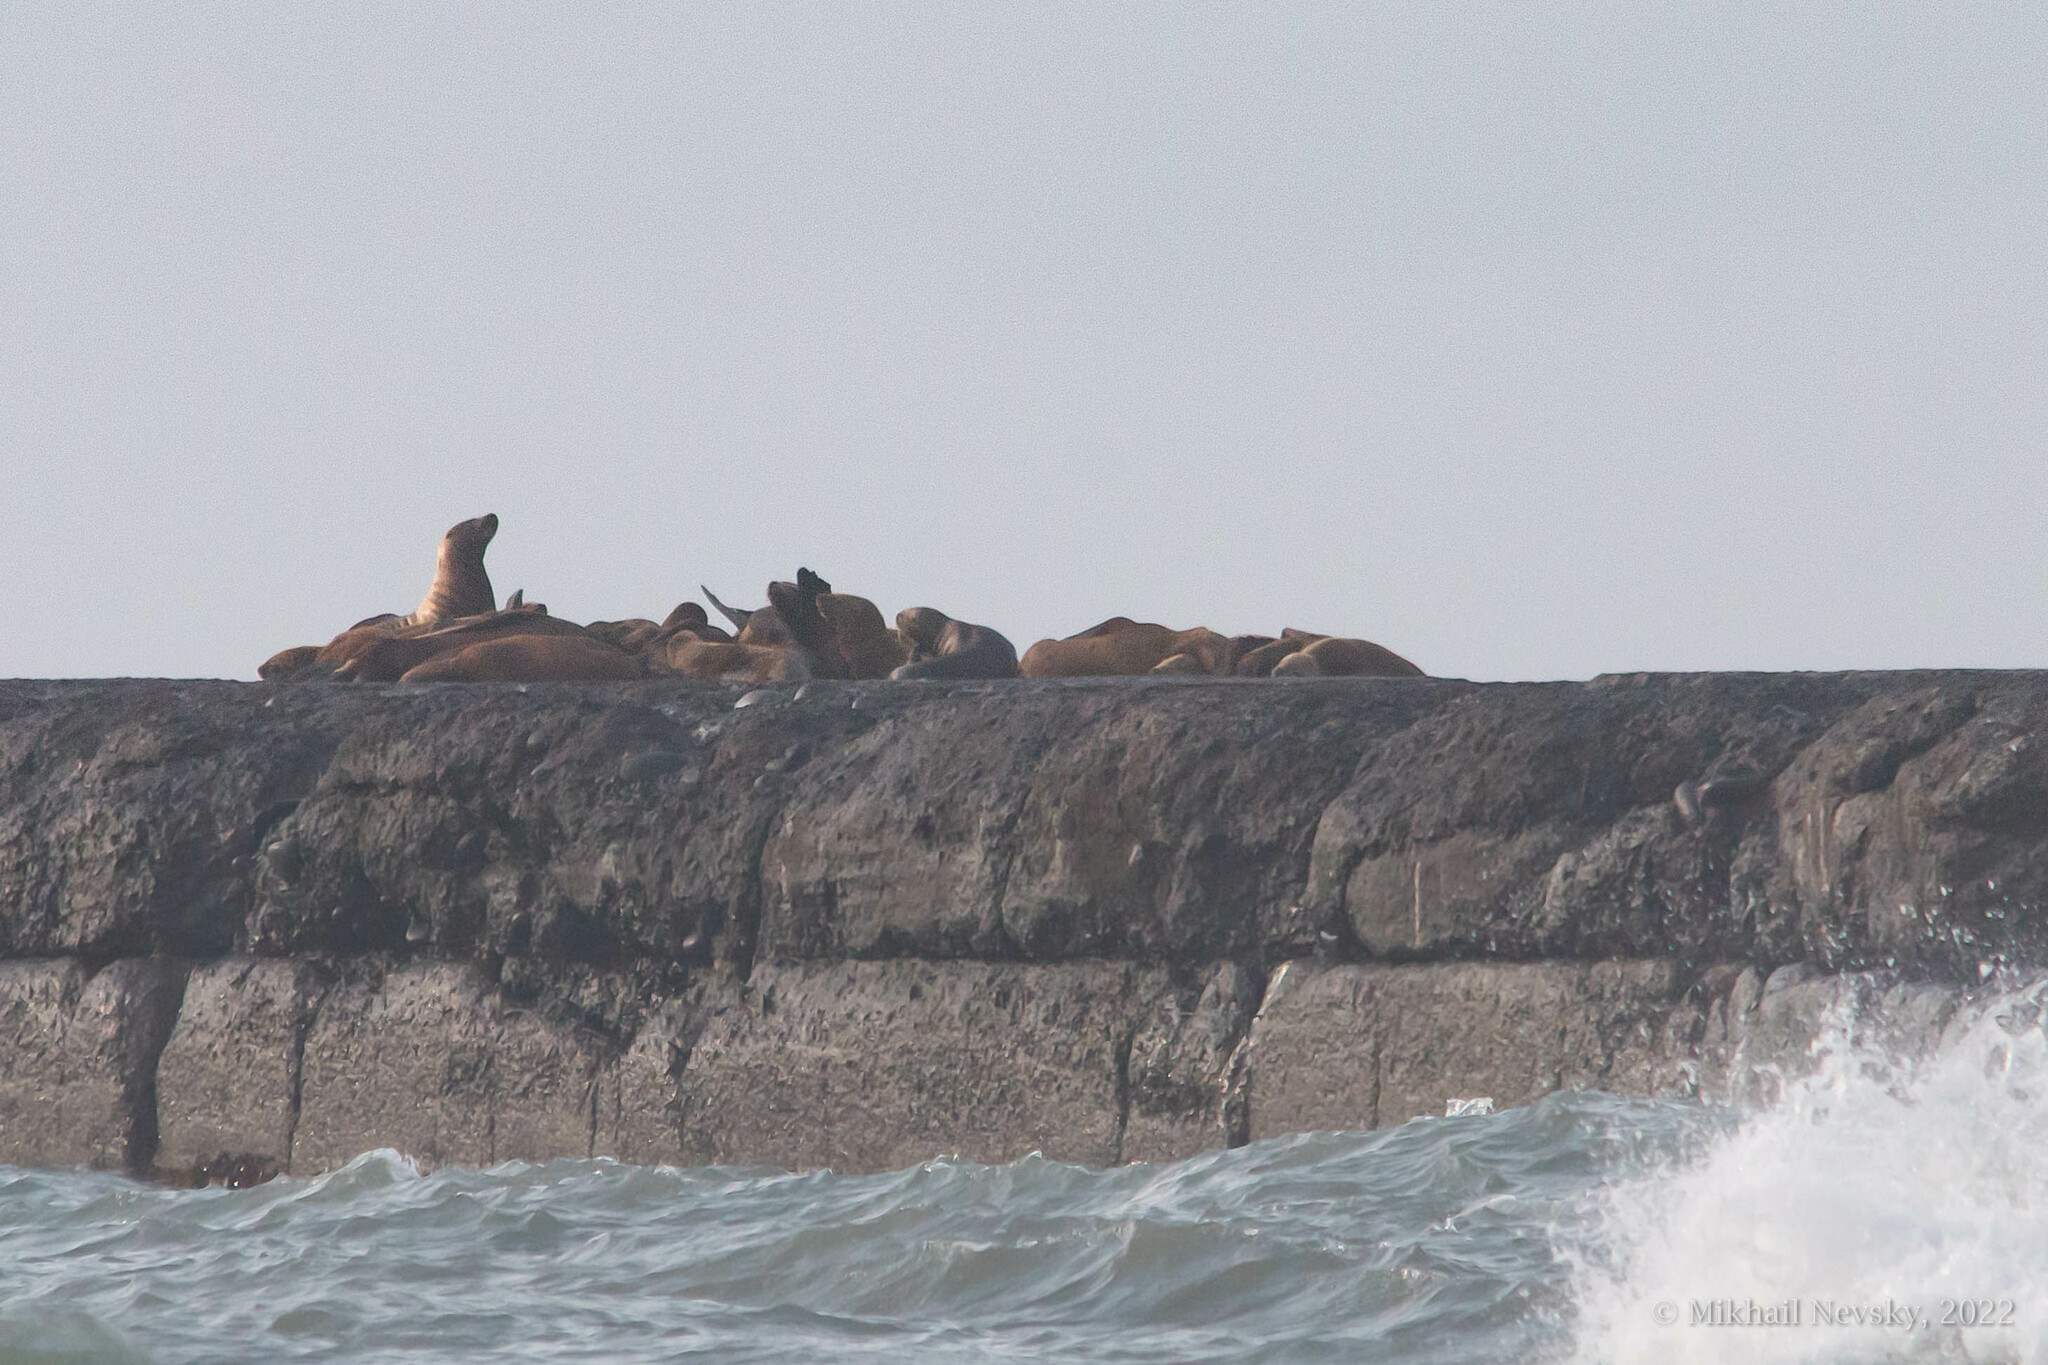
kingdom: Animalia
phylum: Chordata
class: Mammalia
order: Carnivora
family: Otariidae
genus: Eumetopias
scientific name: Eumetopias jubatus
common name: Steller sea lion
